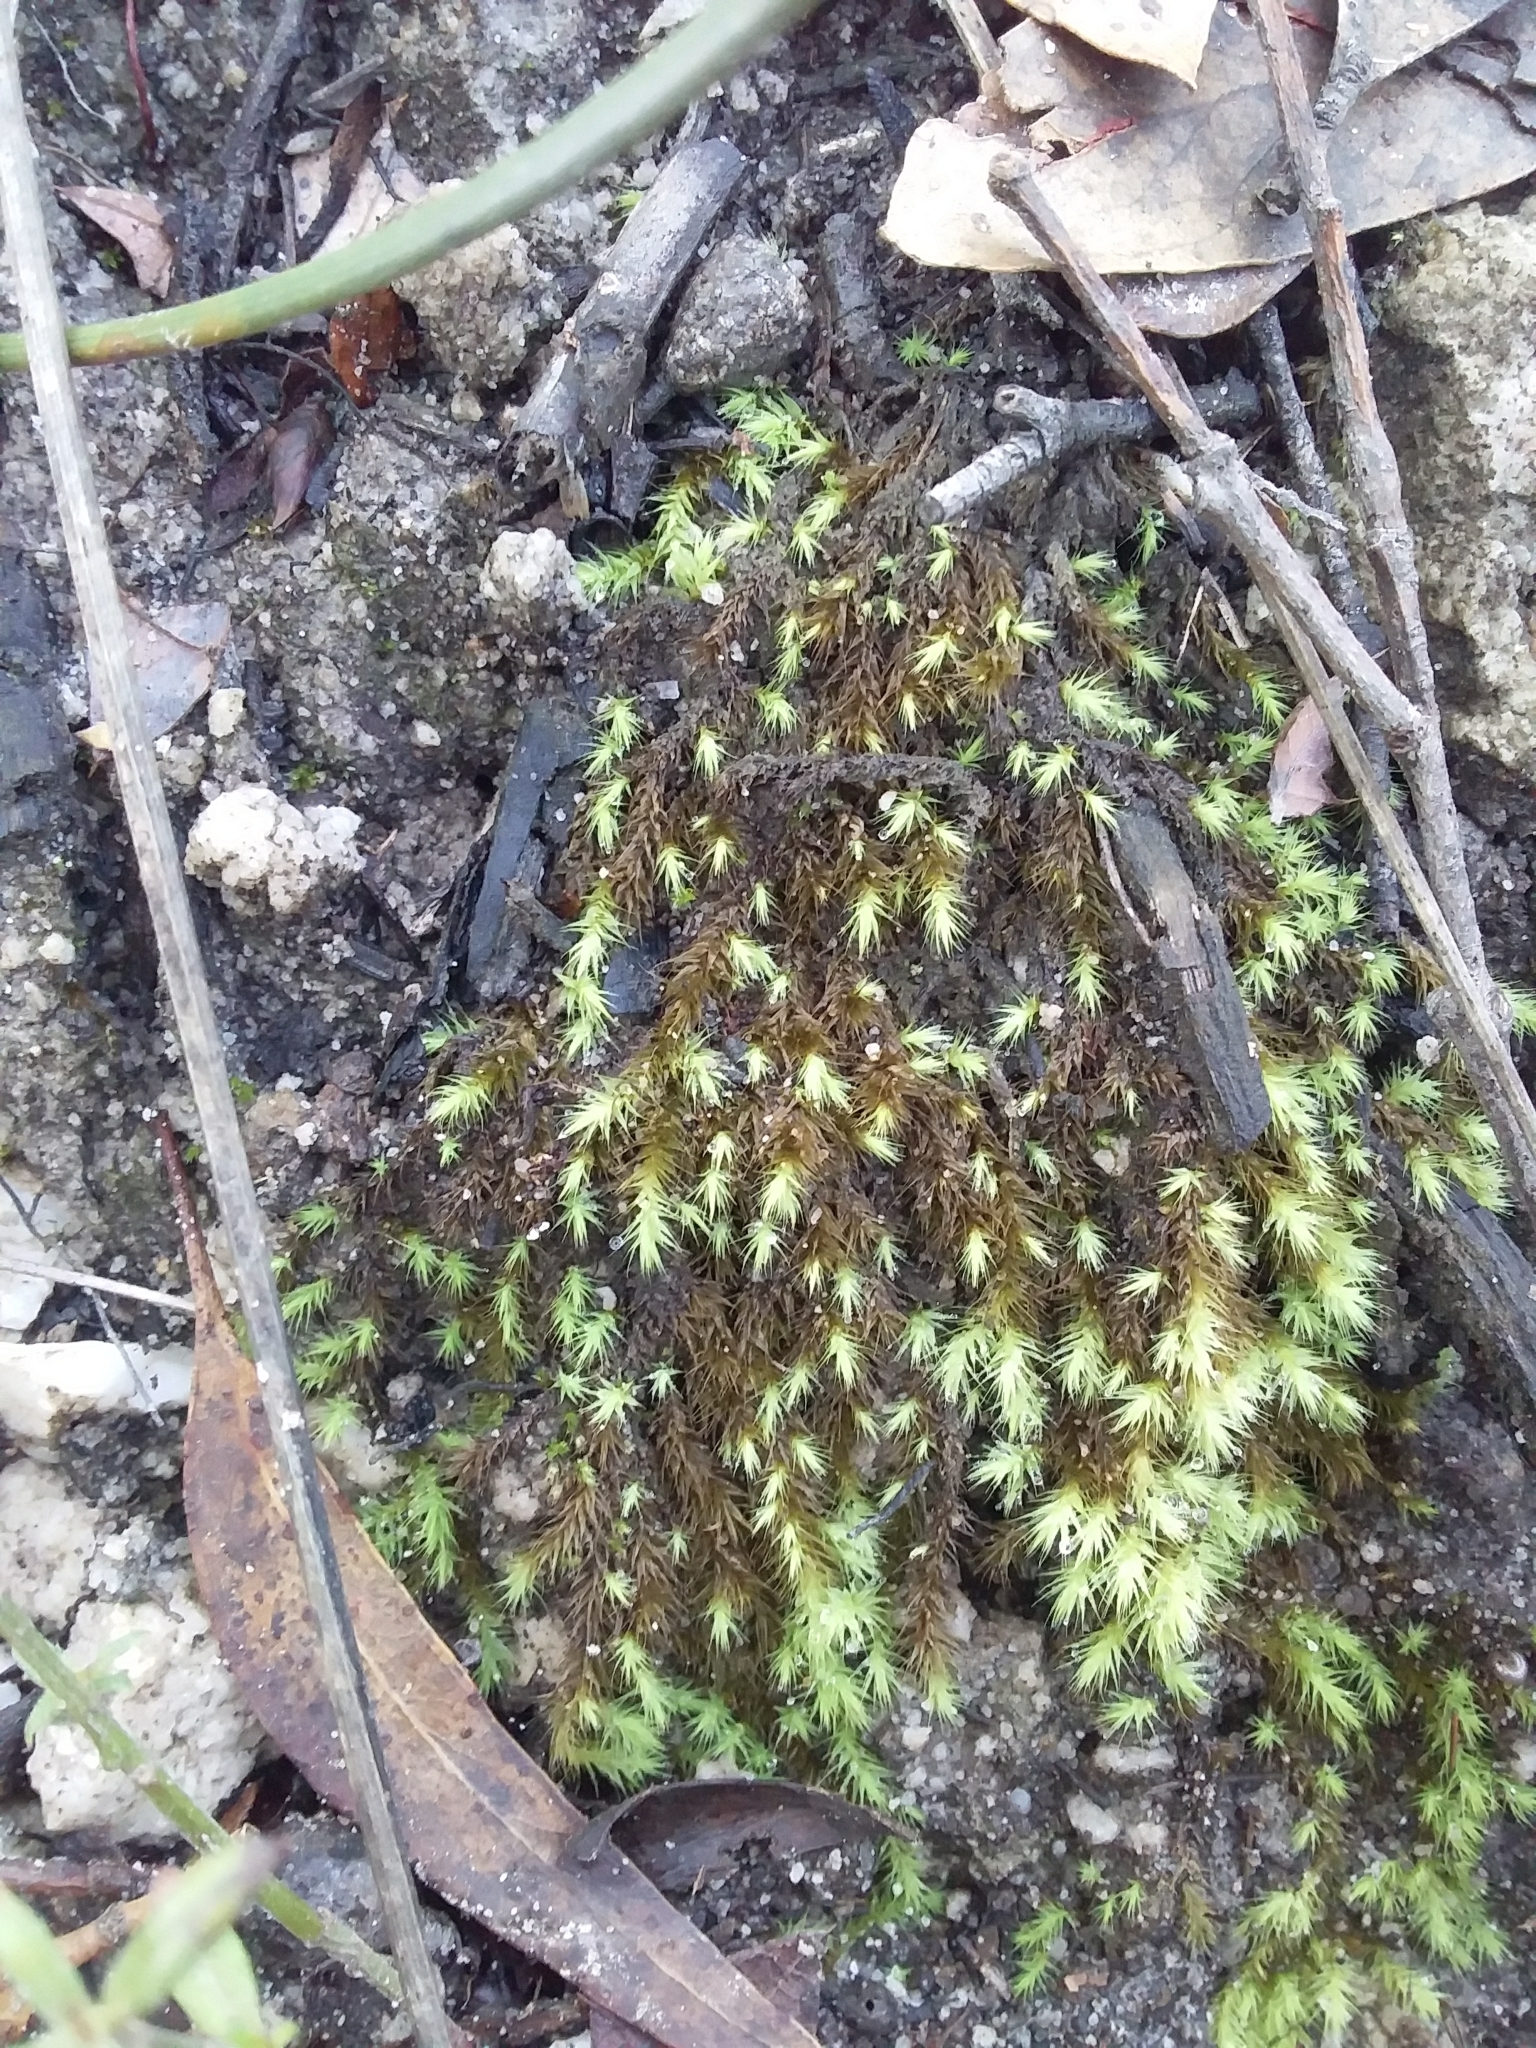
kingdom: Plantae
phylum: Bryophyta
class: Bryopsida
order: Bartramiales
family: Bartramiaceae
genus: Breutelia
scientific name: Breutelia affinis
